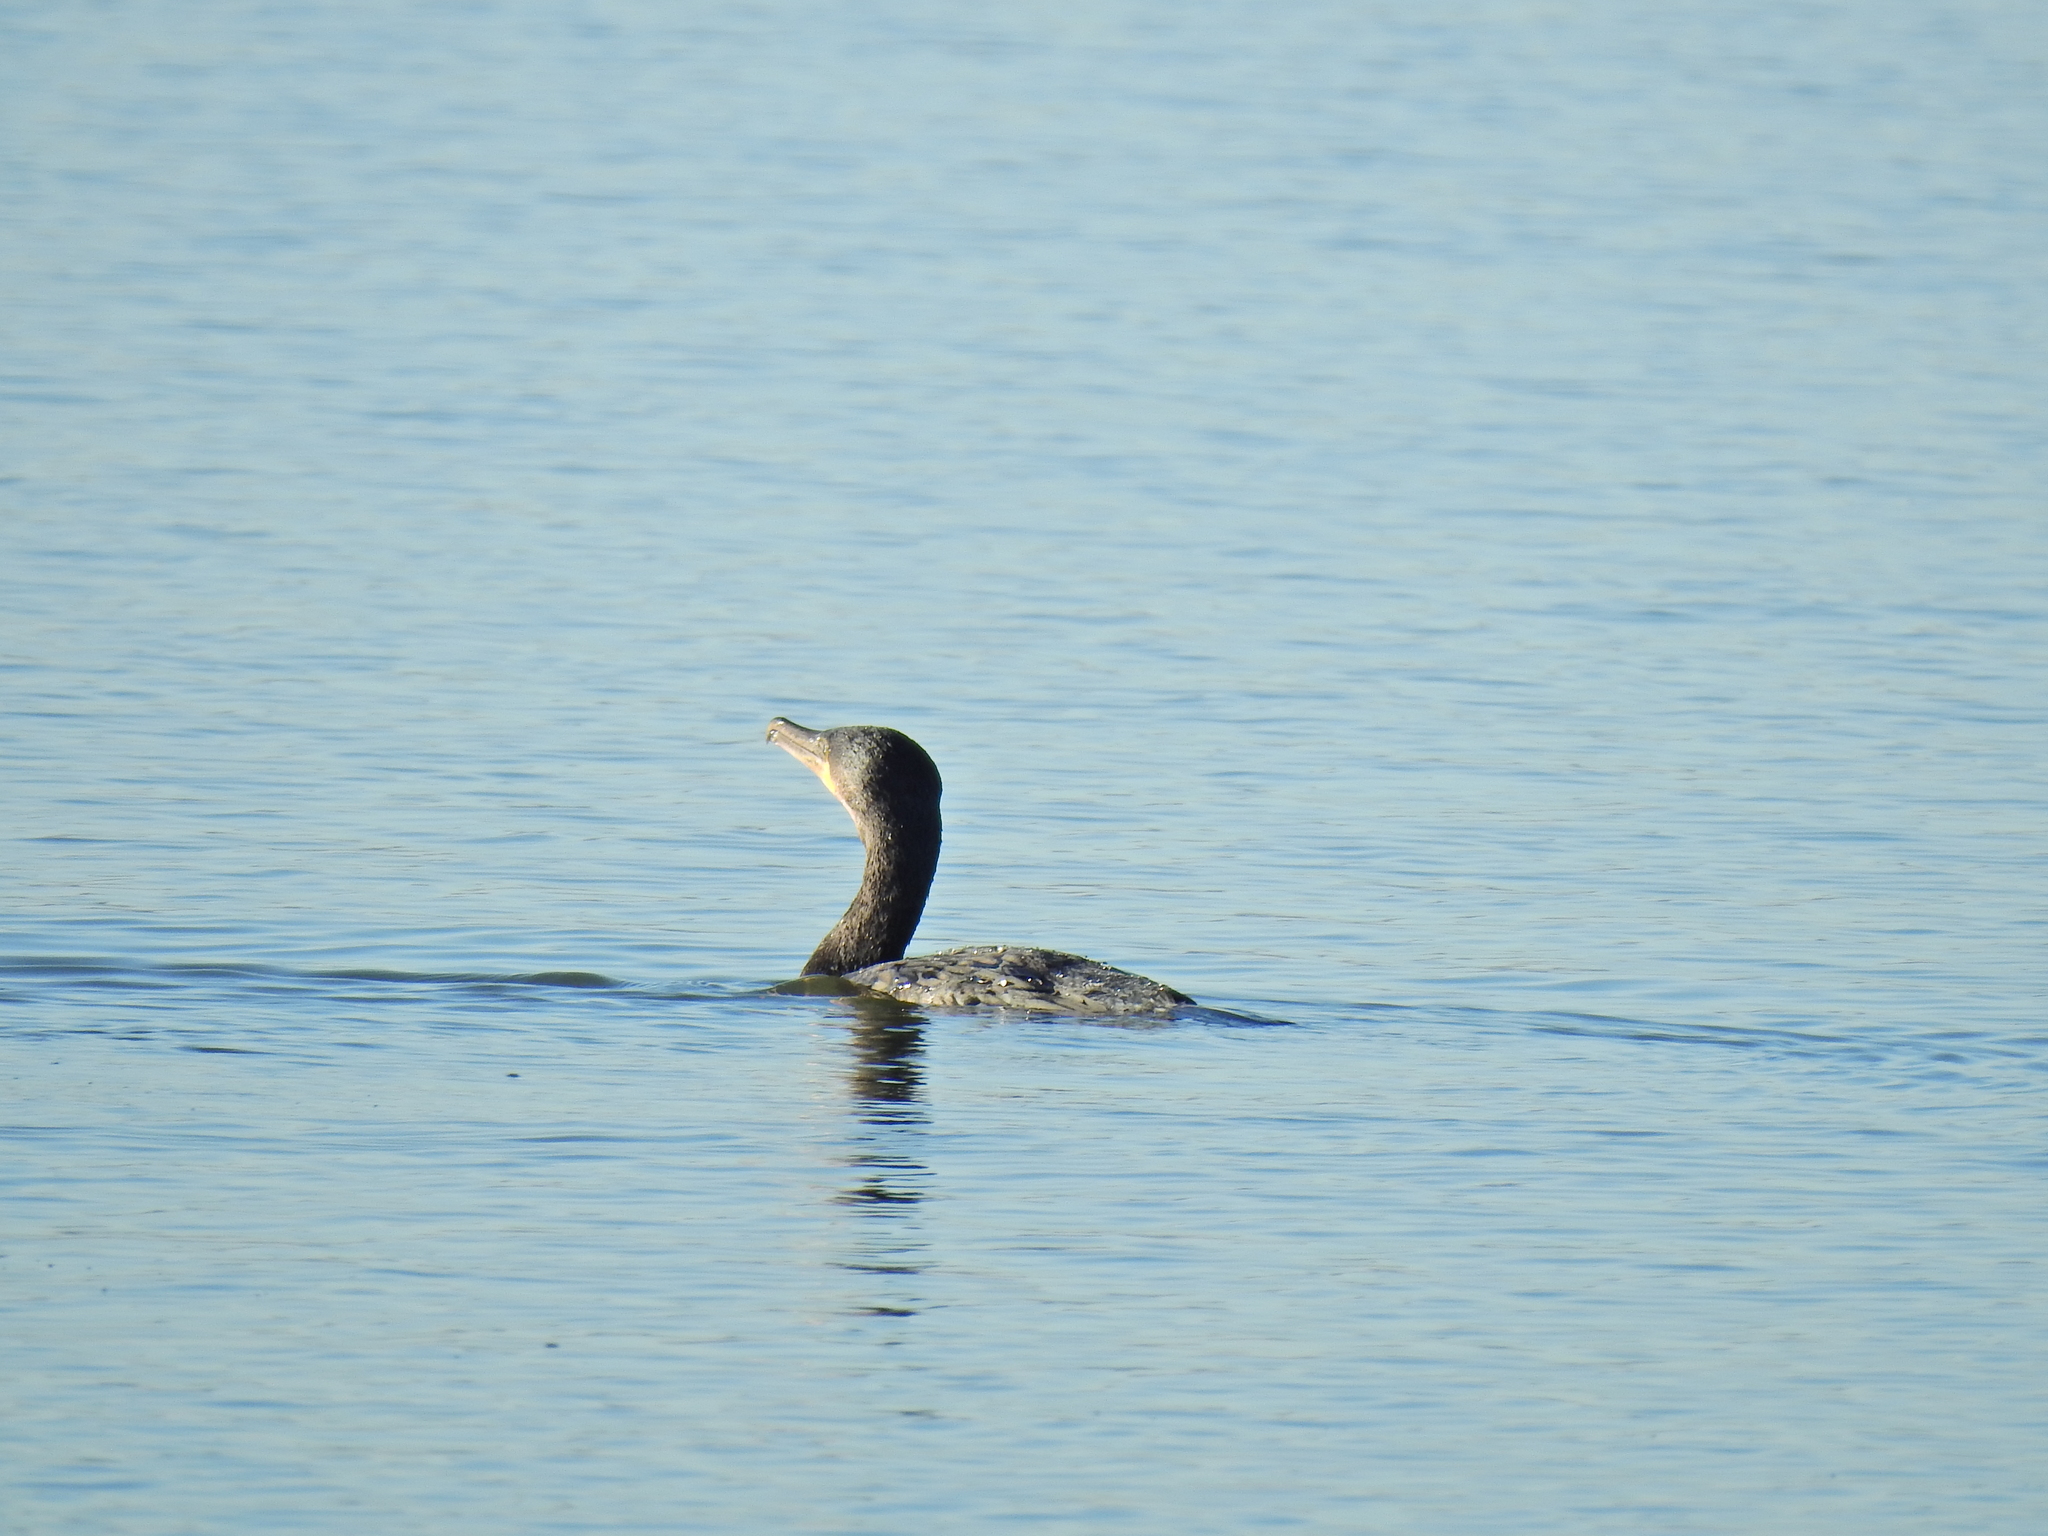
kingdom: Animalia
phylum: Chordata
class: Aves
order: Suliformes
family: Phalacrocoracidae
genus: Phalacrocorax
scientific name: Phalacrocorax carbo
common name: Great cormorant
